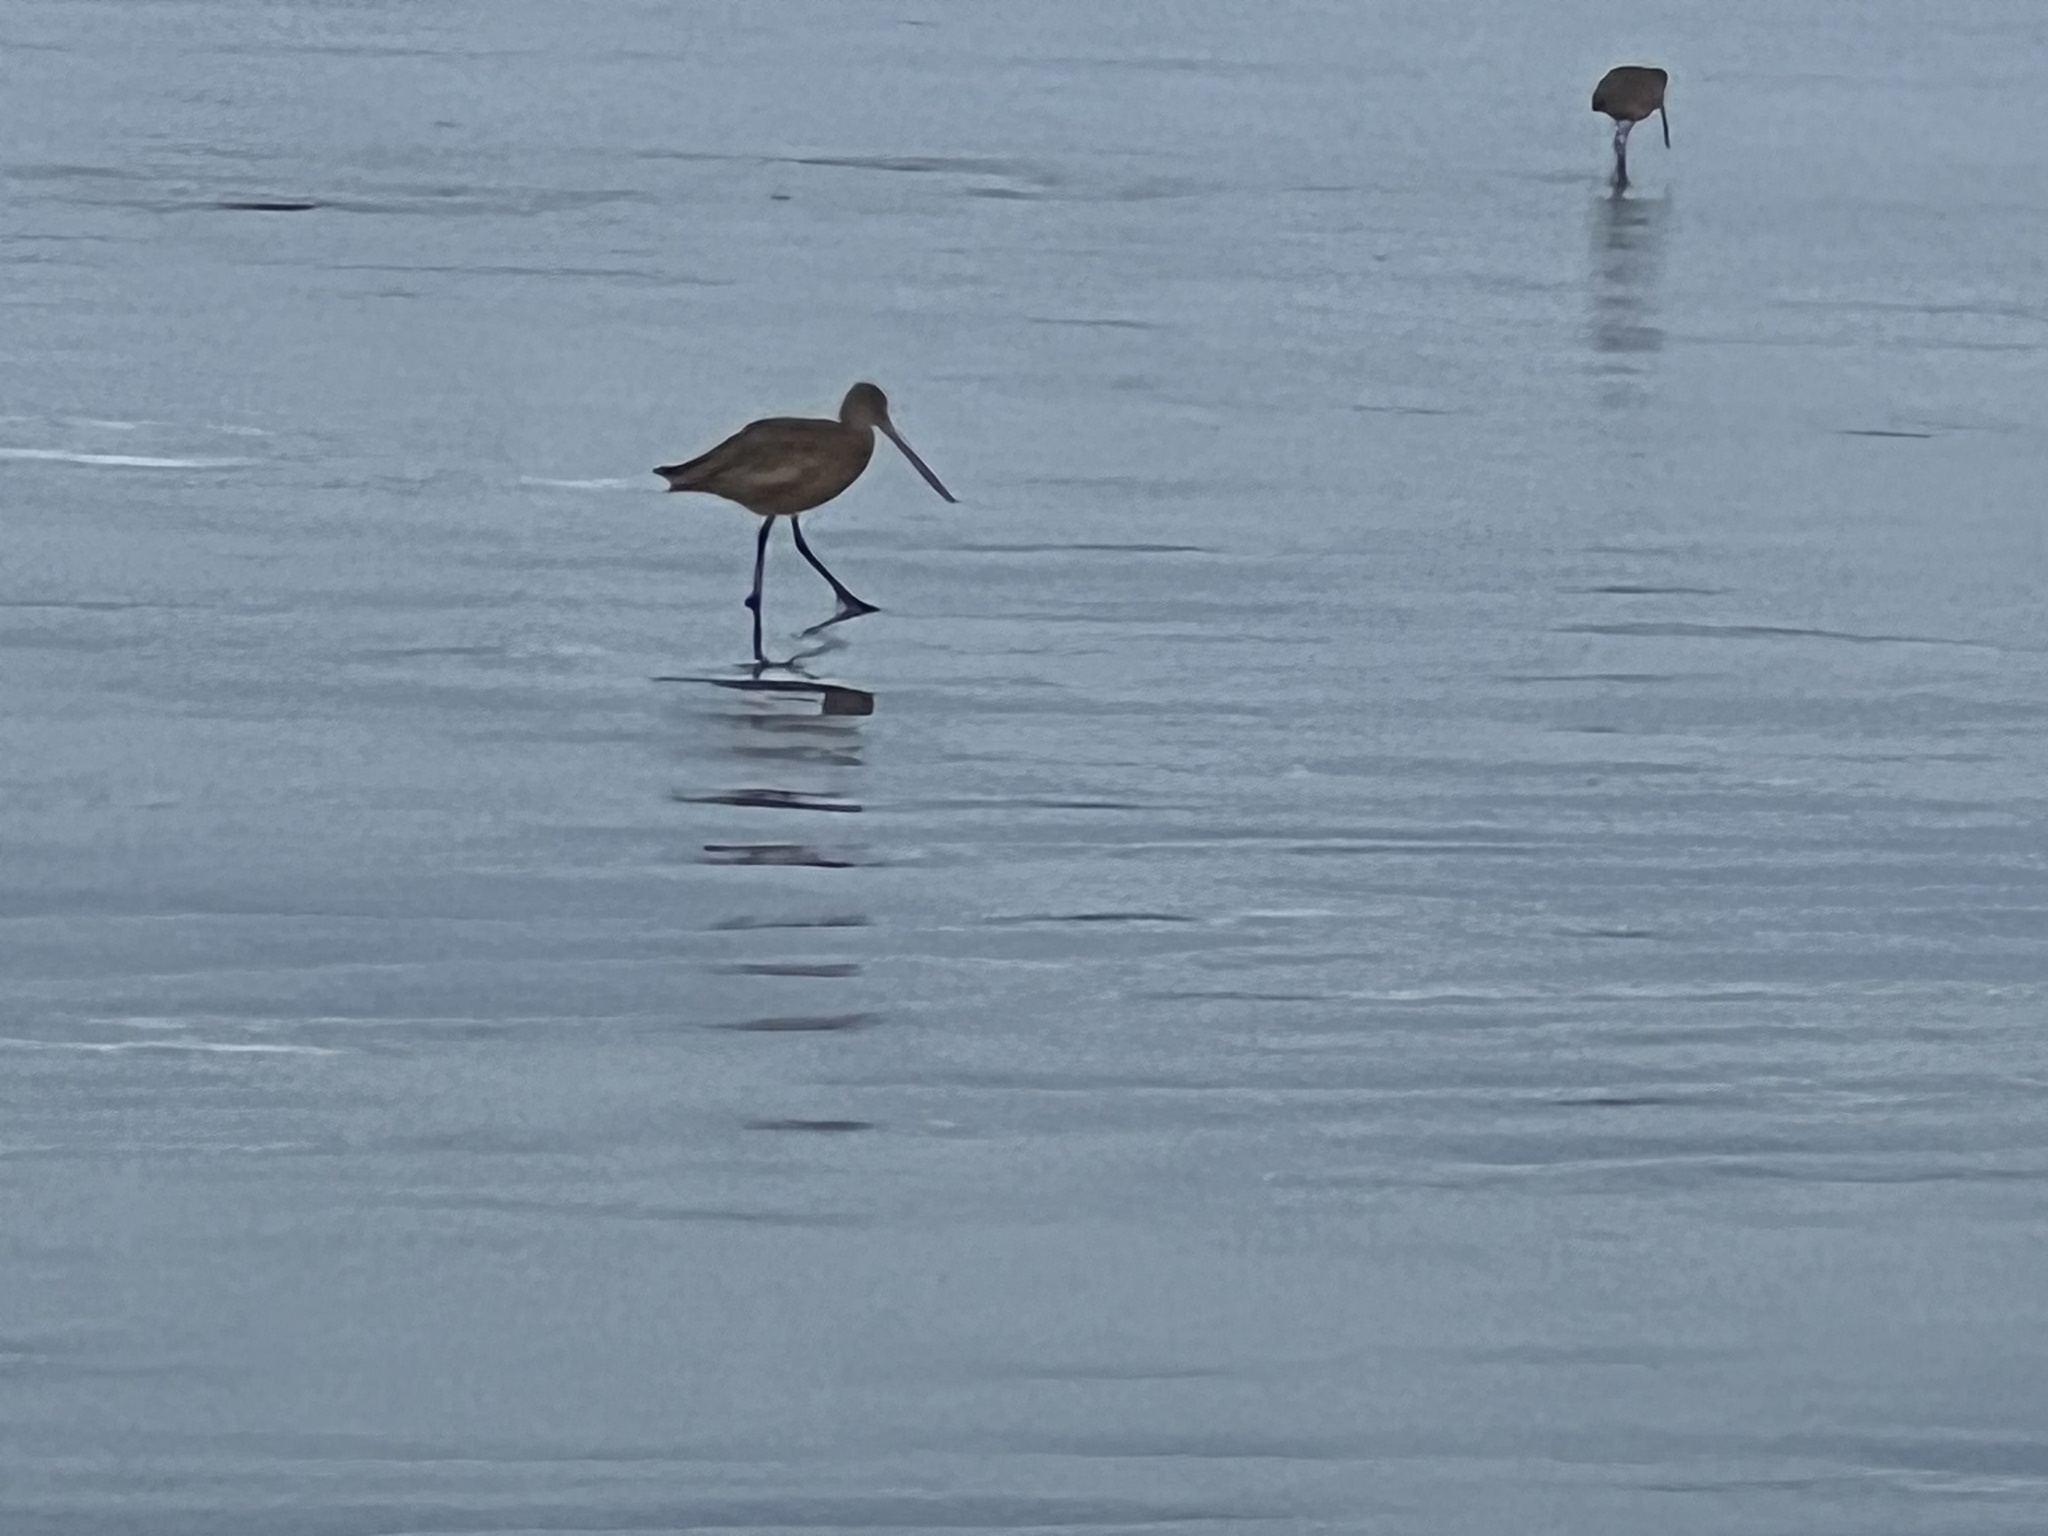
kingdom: Animalia
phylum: Chordata
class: Aves
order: Charadriiformes
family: Scolopacidae
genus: Limosa
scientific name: Limosa fedoa
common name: Marbled godwit
